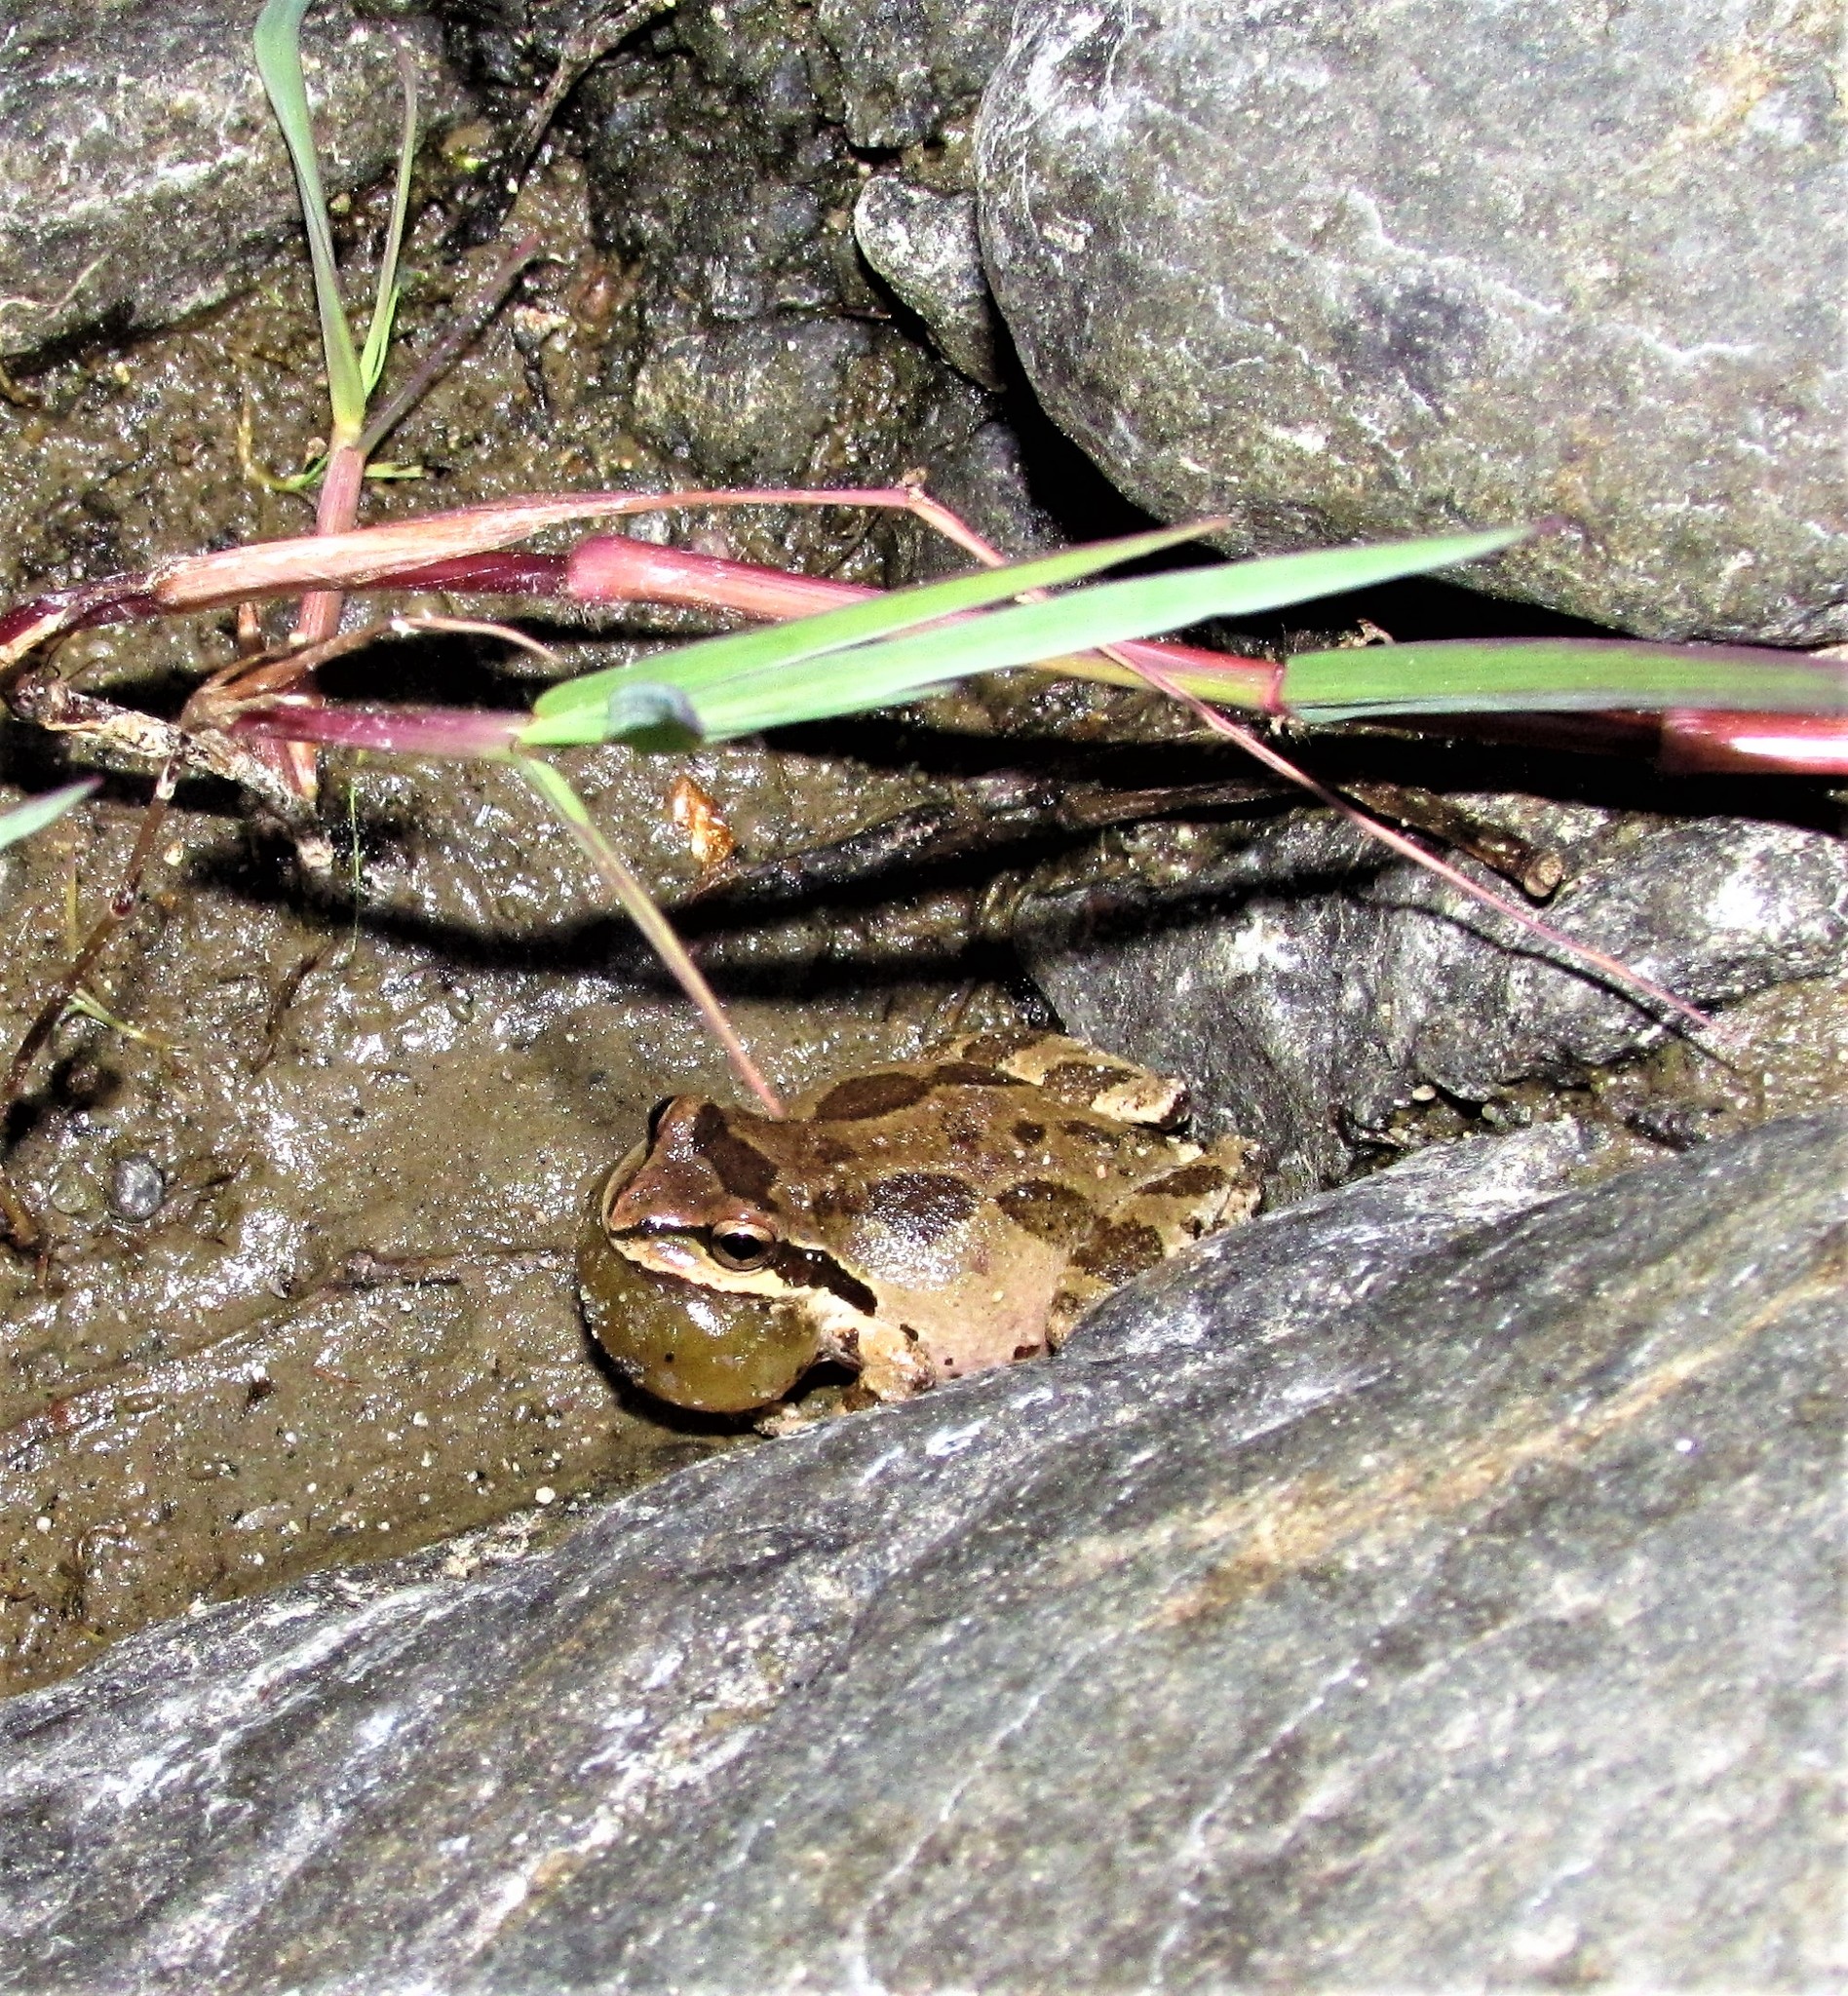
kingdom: Animalia
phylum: Chordata
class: Amphibia
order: Anura
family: Hylidae
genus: Pseudacris
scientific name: Pseudacris regilla
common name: Pacific chorus frog
